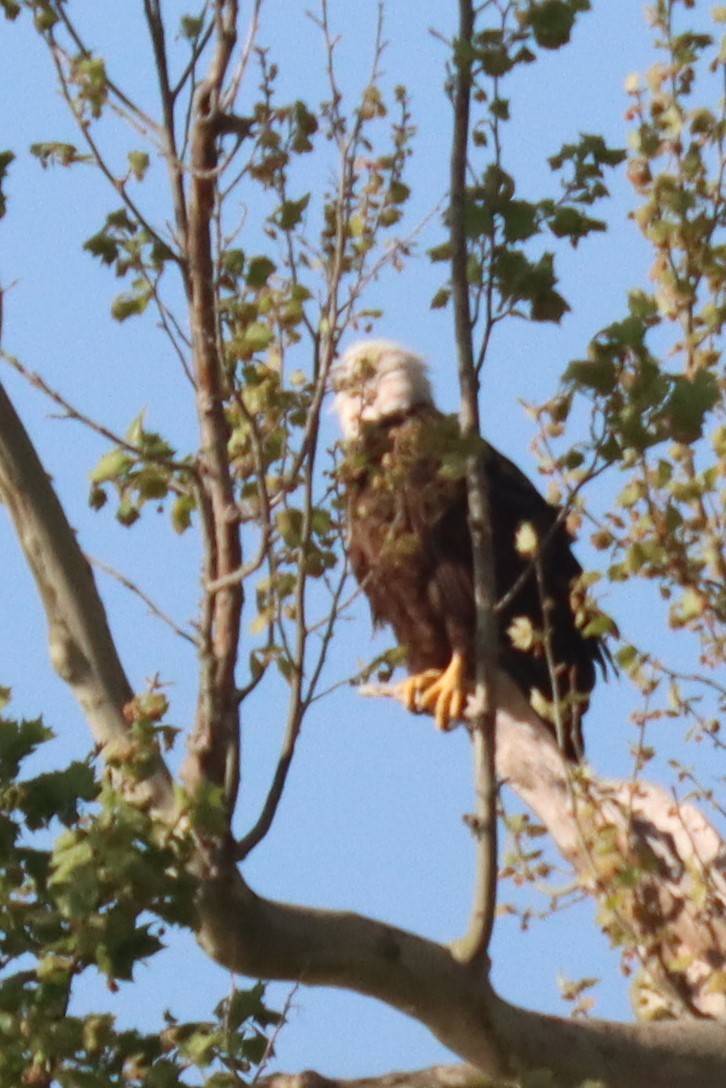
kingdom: Animalia
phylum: Chordata
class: Aves
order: Accipitriformes
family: Accipitridae
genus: Haliaeetus
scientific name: Haliaeetus leucocephalus
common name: Bald eagle
